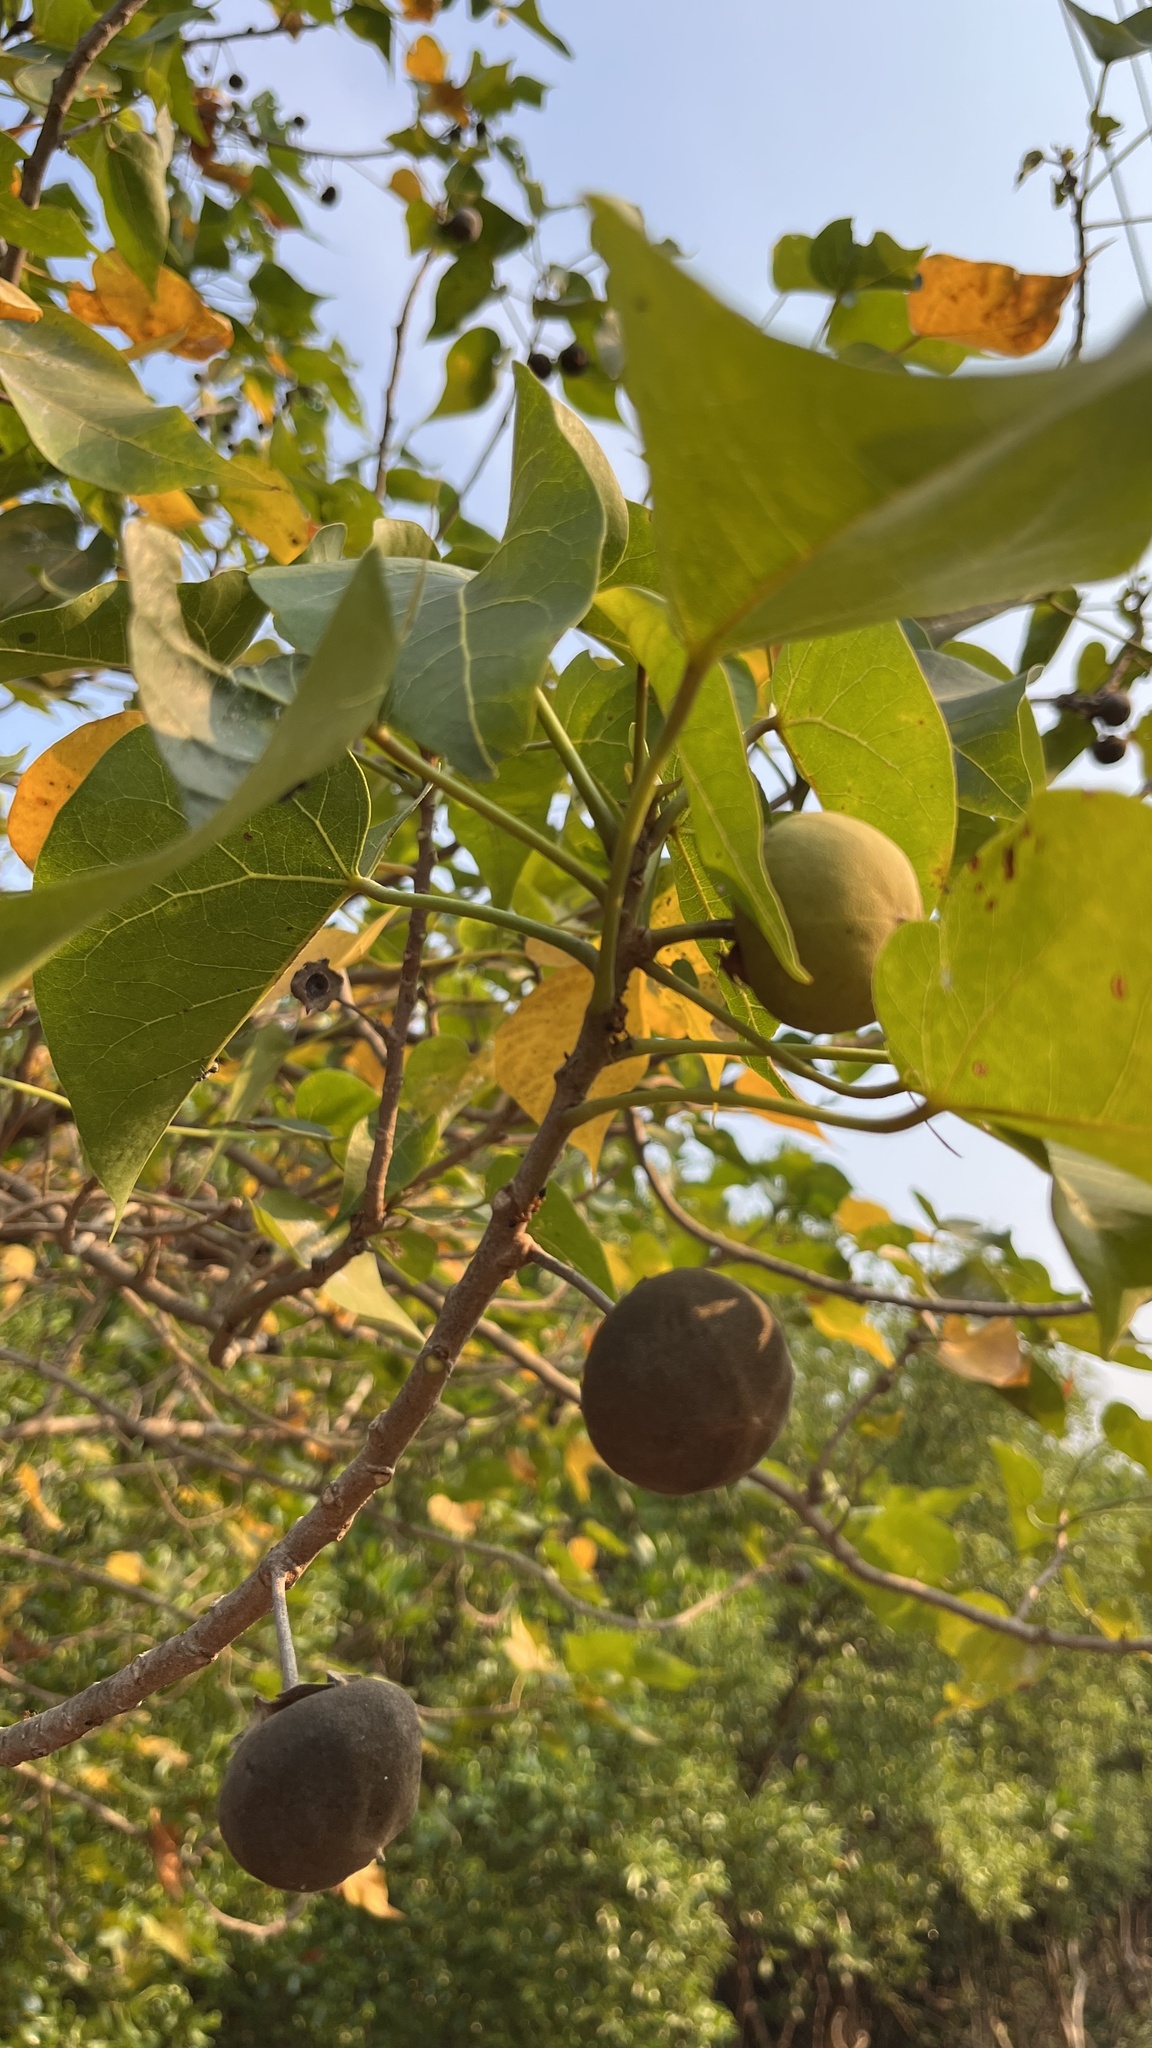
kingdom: Plantae
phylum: Tracheophyta
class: Magnoliopsida
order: Malvales
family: Malvaceae
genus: Thespesia
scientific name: Thespesia populnea
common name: Seaside mahoe
